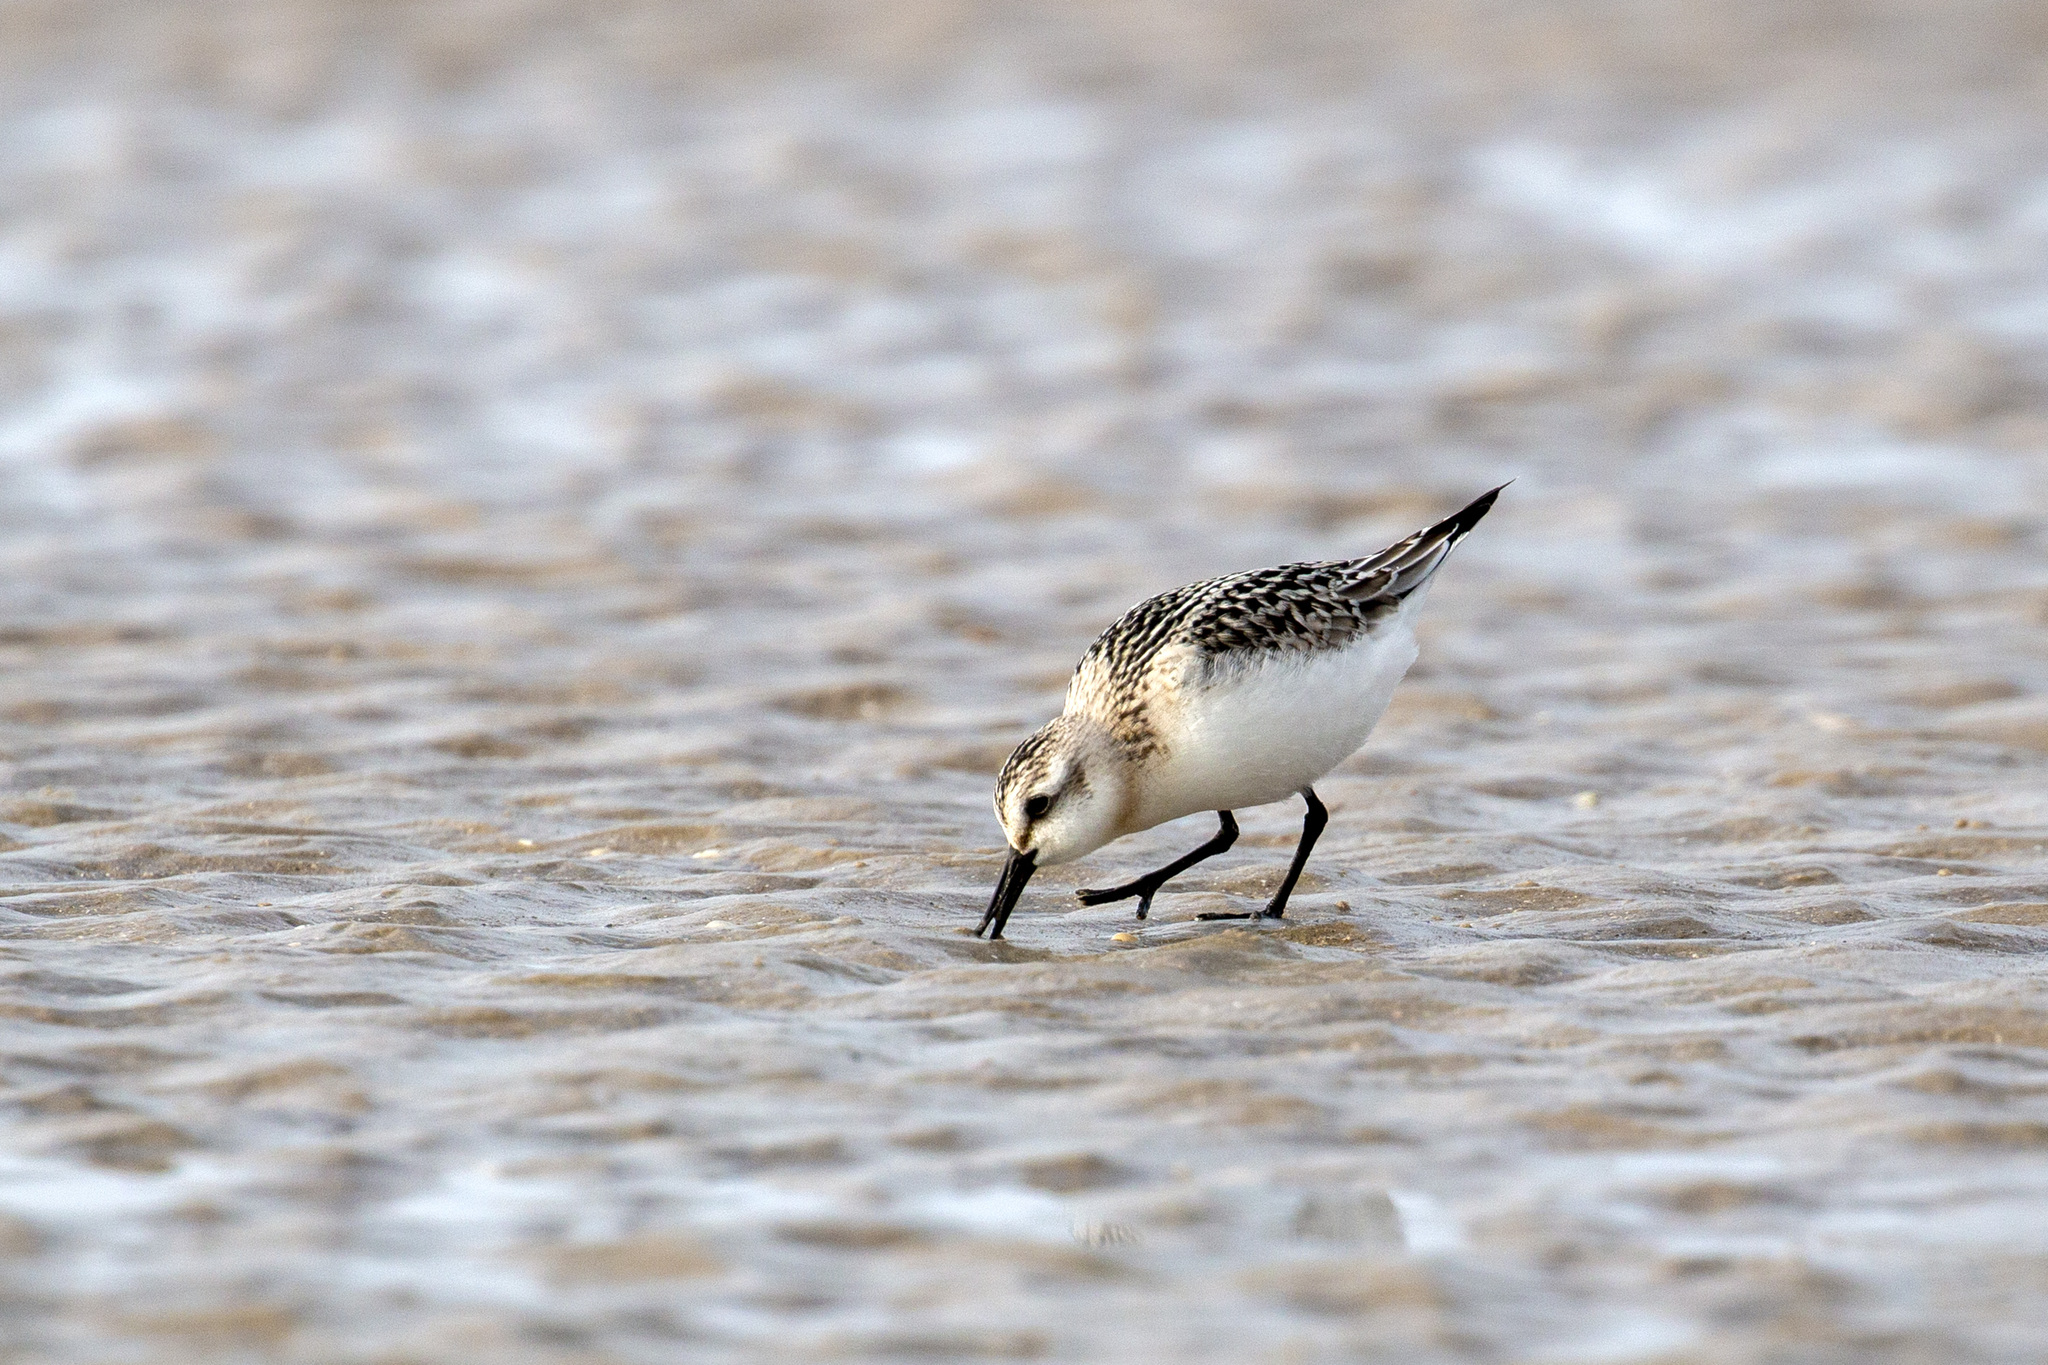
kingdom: Animalia
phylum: Chordata
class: Aves
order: Charadriiformes
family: Scolopacidae
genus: Calidris
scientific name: Calidris alba
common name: Sanderling
